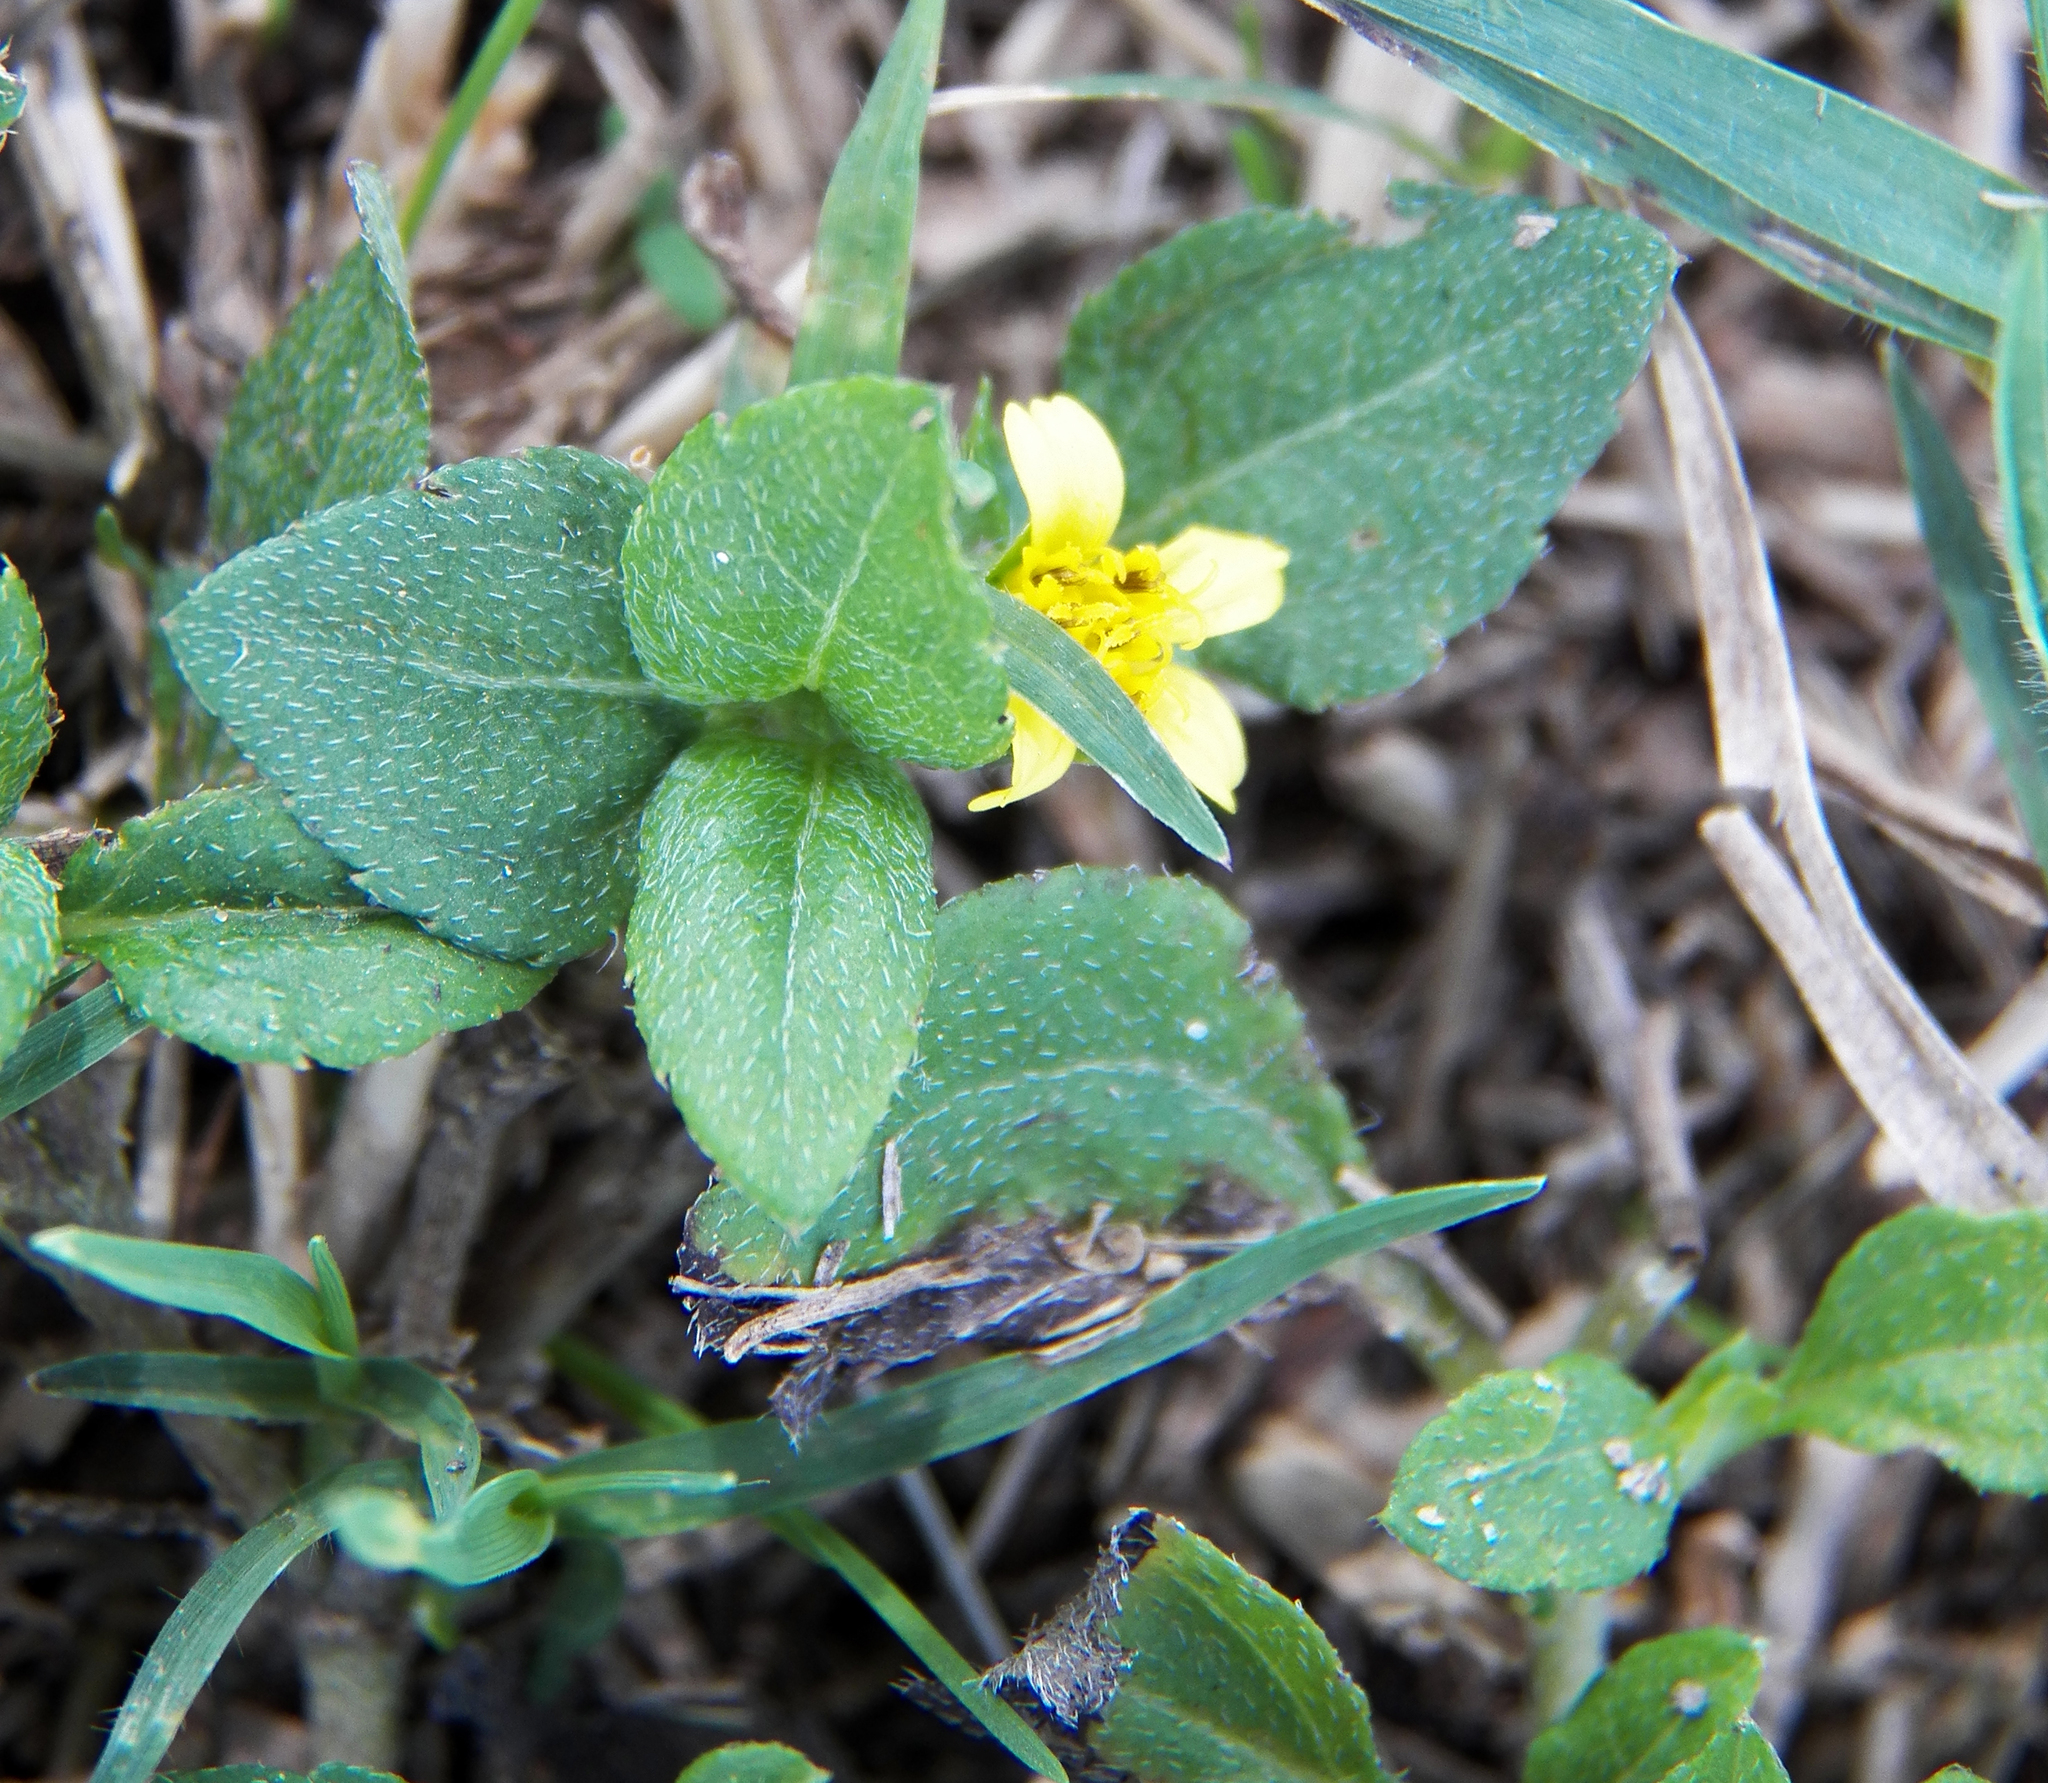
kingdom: Plantae
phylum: Tracheophyta
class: Magnoliopsida
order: Asterales
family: Asteraceae
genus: Calyptocarpus
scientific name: Calyptocarpus vialis
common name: Straggler daisy
